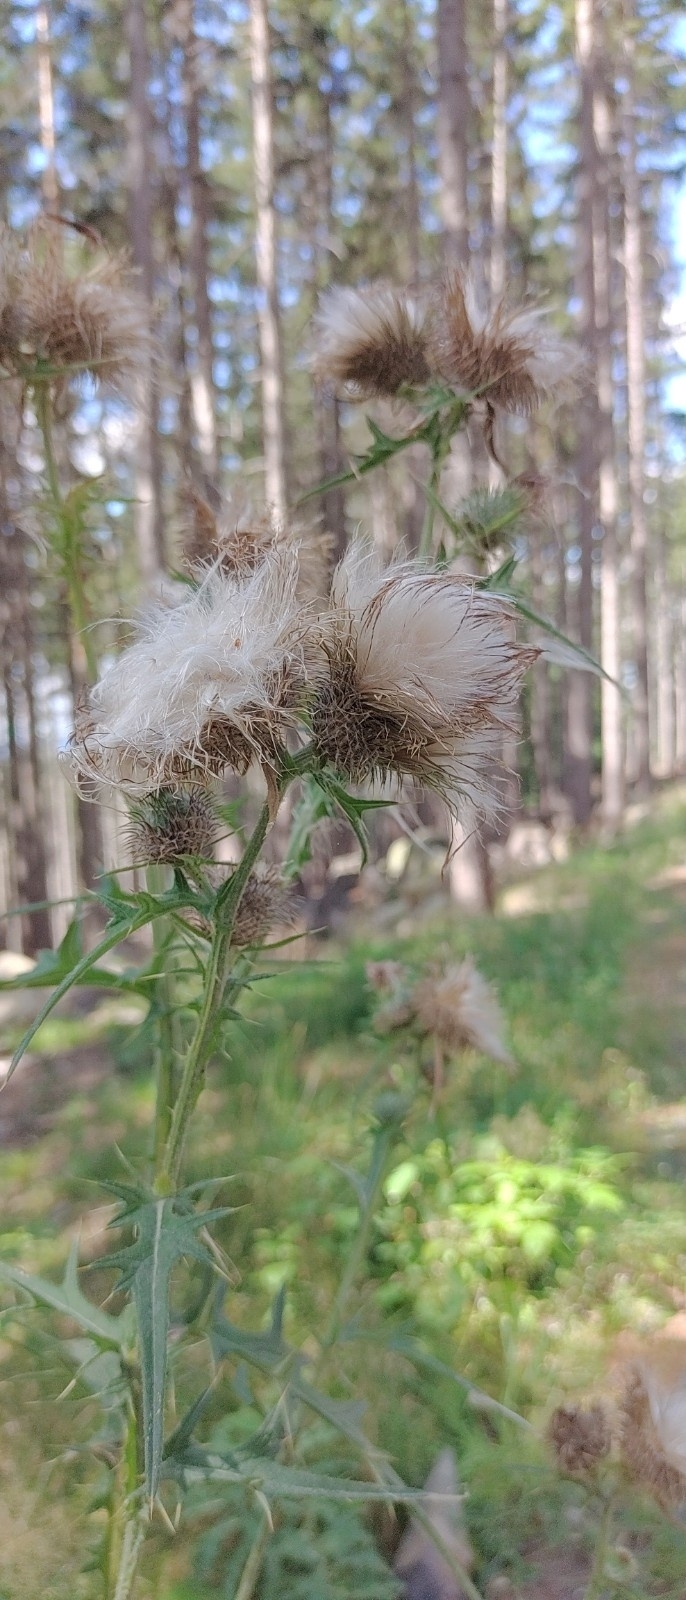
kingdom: Plantae
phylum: Tracheophyta
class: Magnoliopsida
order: Asterales
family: Asteraceae
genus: Cirsium
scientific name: Cirsium vulgare
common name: Bull thistle
